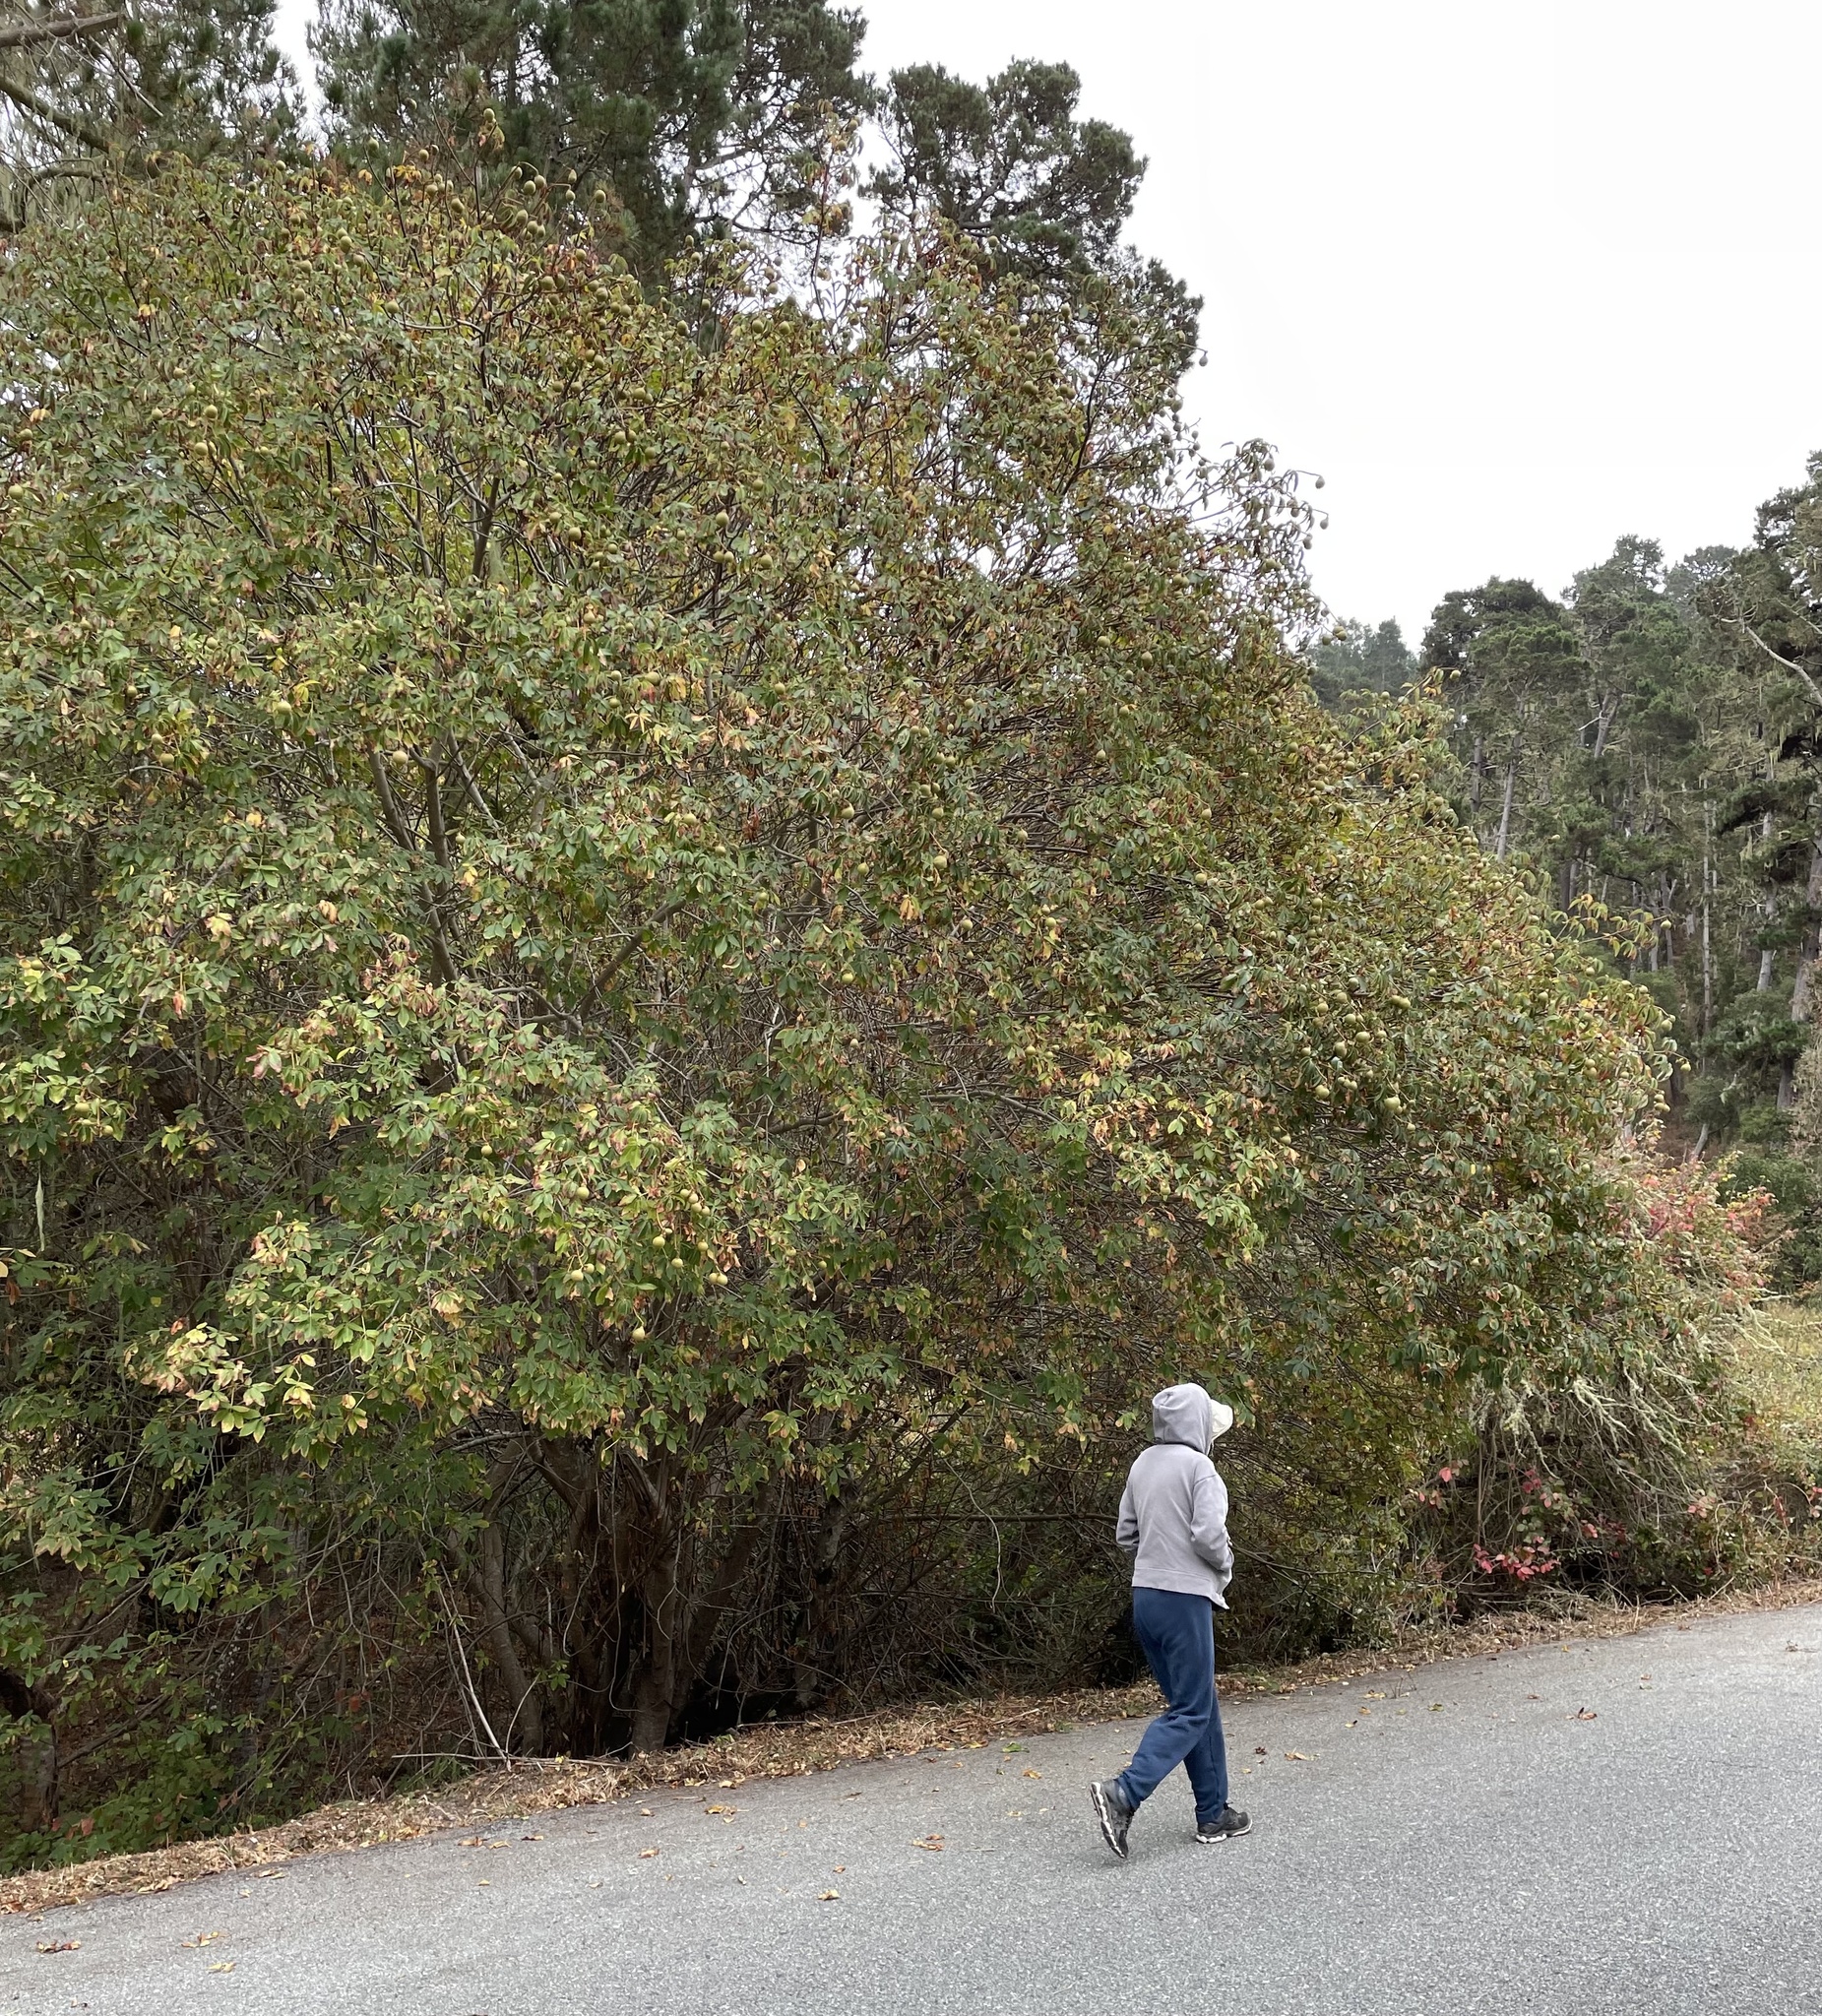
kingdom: Plantae
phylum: Tracheophyta
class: Magnoliopsida
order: Sapindales
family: Sapindaceae
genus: Aesculus
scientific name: Aesculus californica
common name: California buckeye
